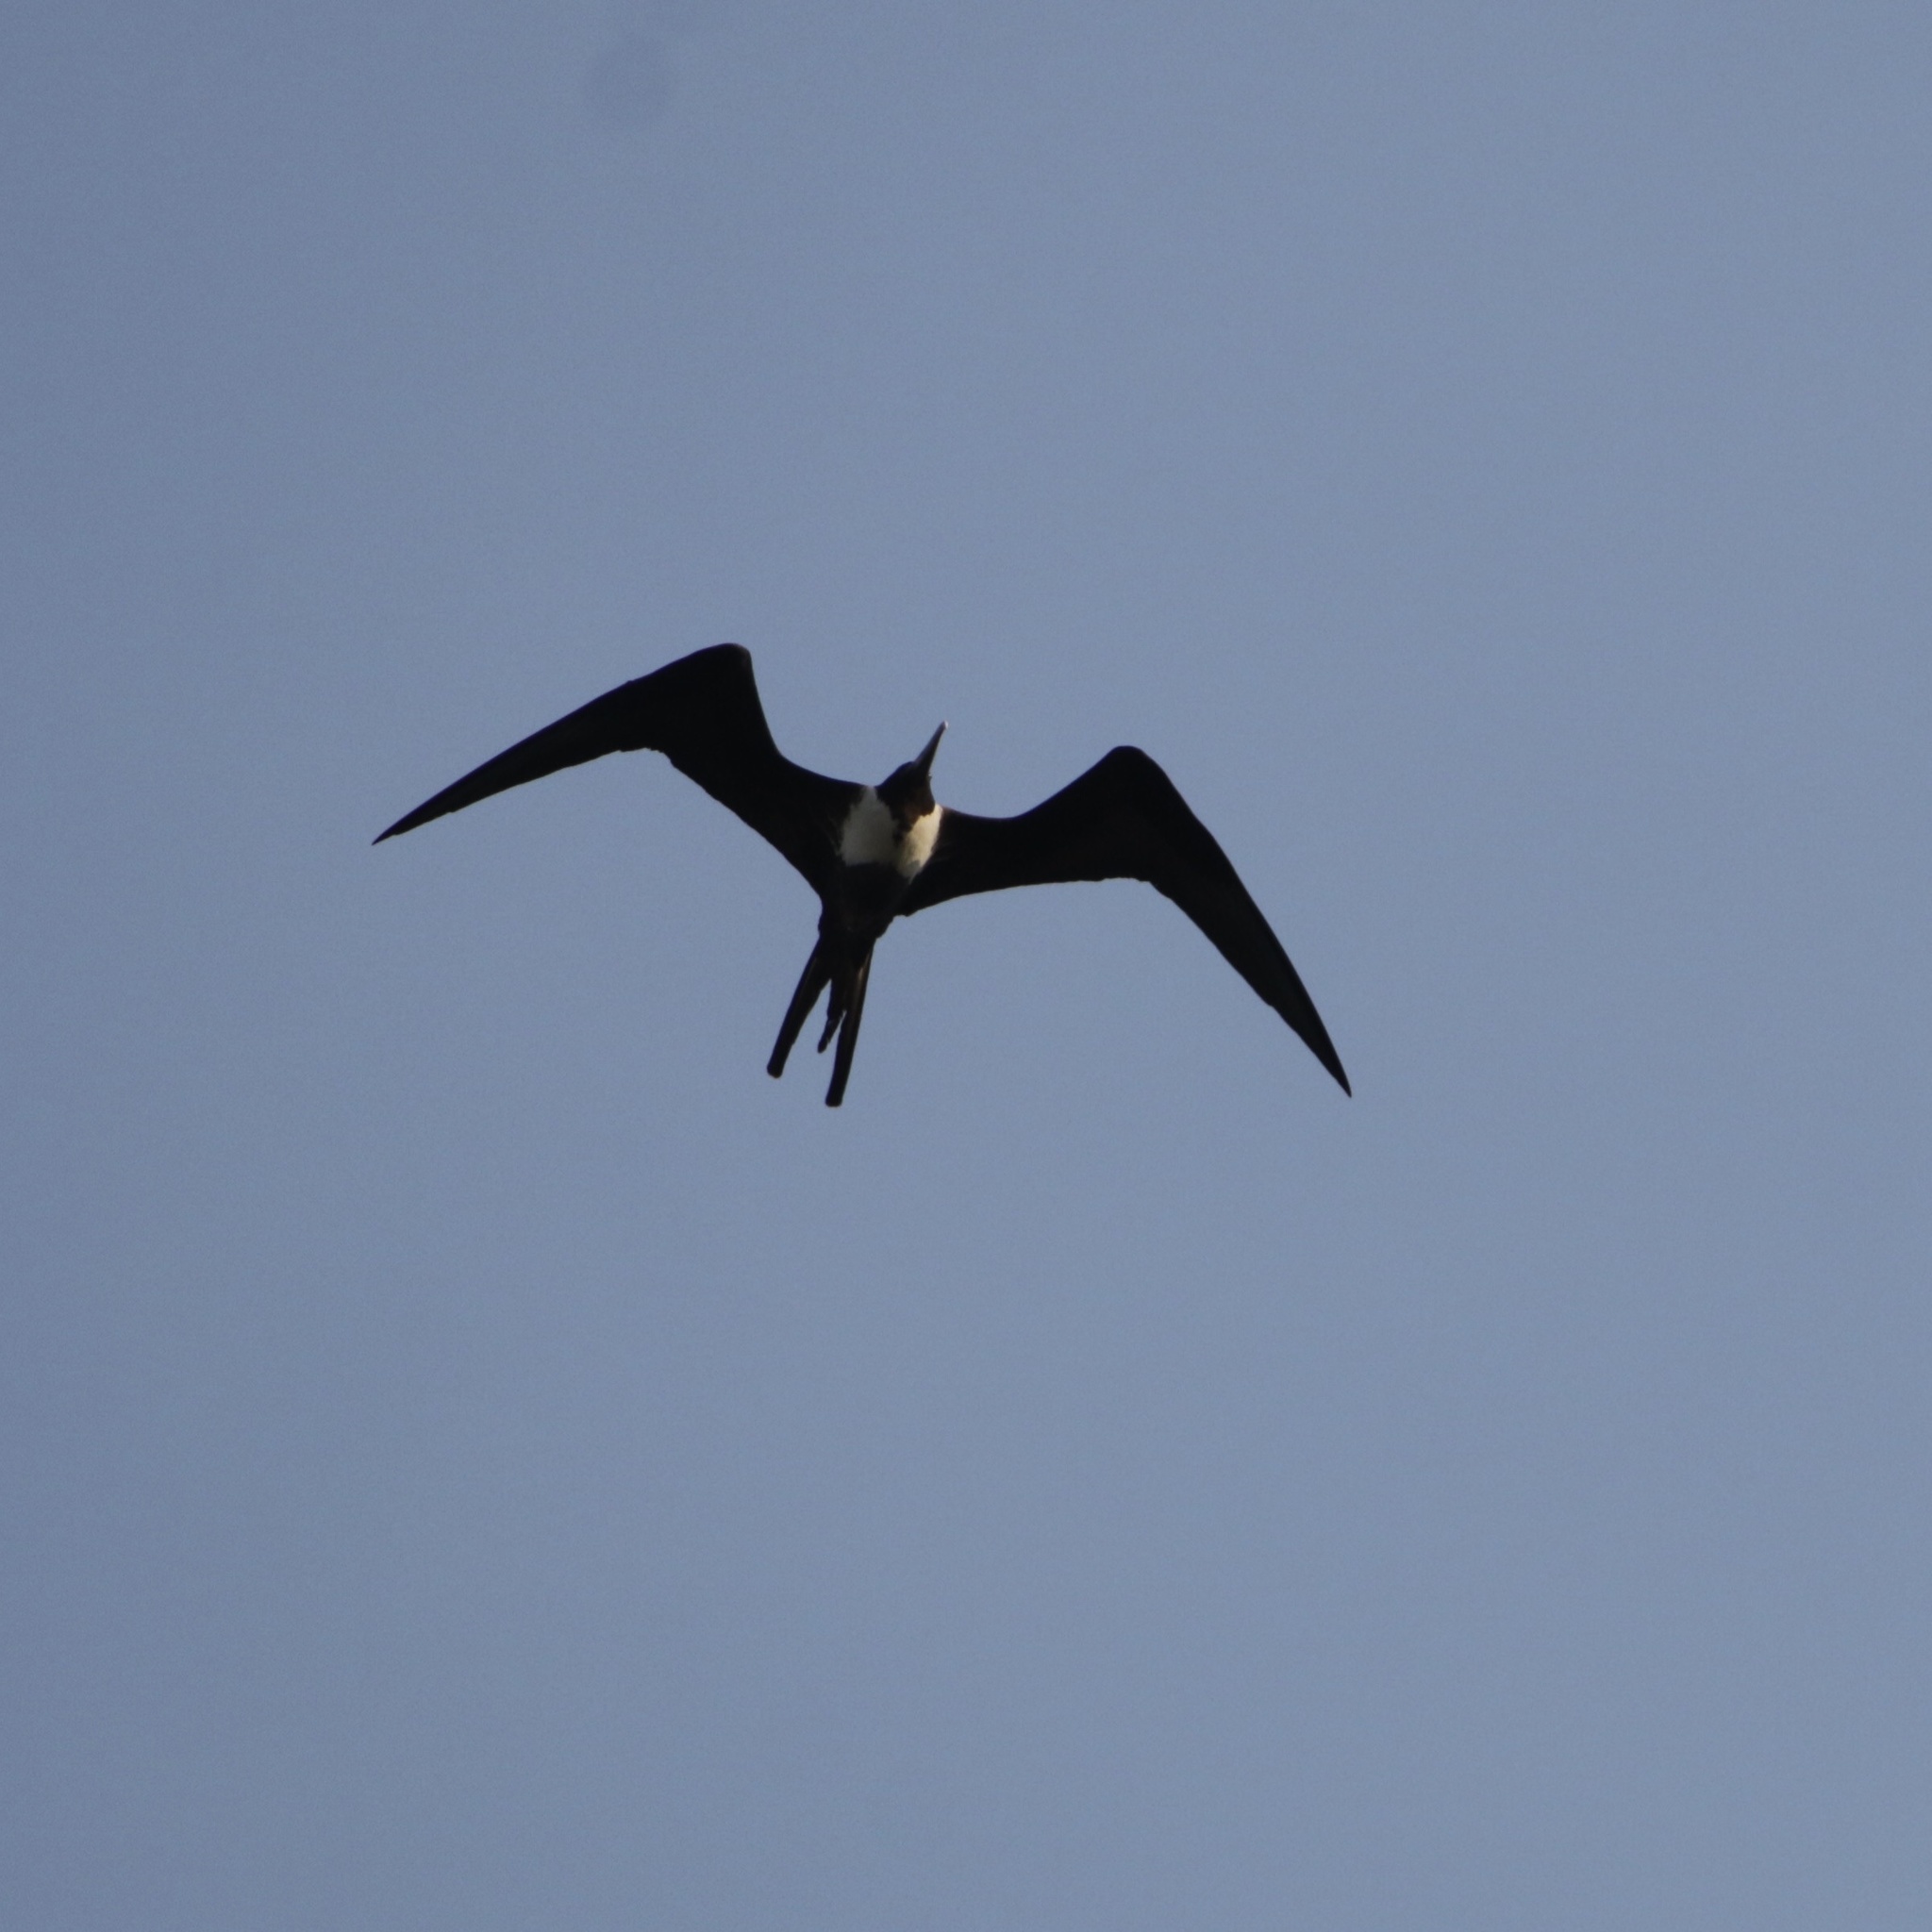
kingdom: Animalia
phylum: Chordata
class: Aves
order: Suliformes
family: Fregatidae
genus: Fregata
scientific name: Fregata magnificens
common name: Magnificent frigatebird
